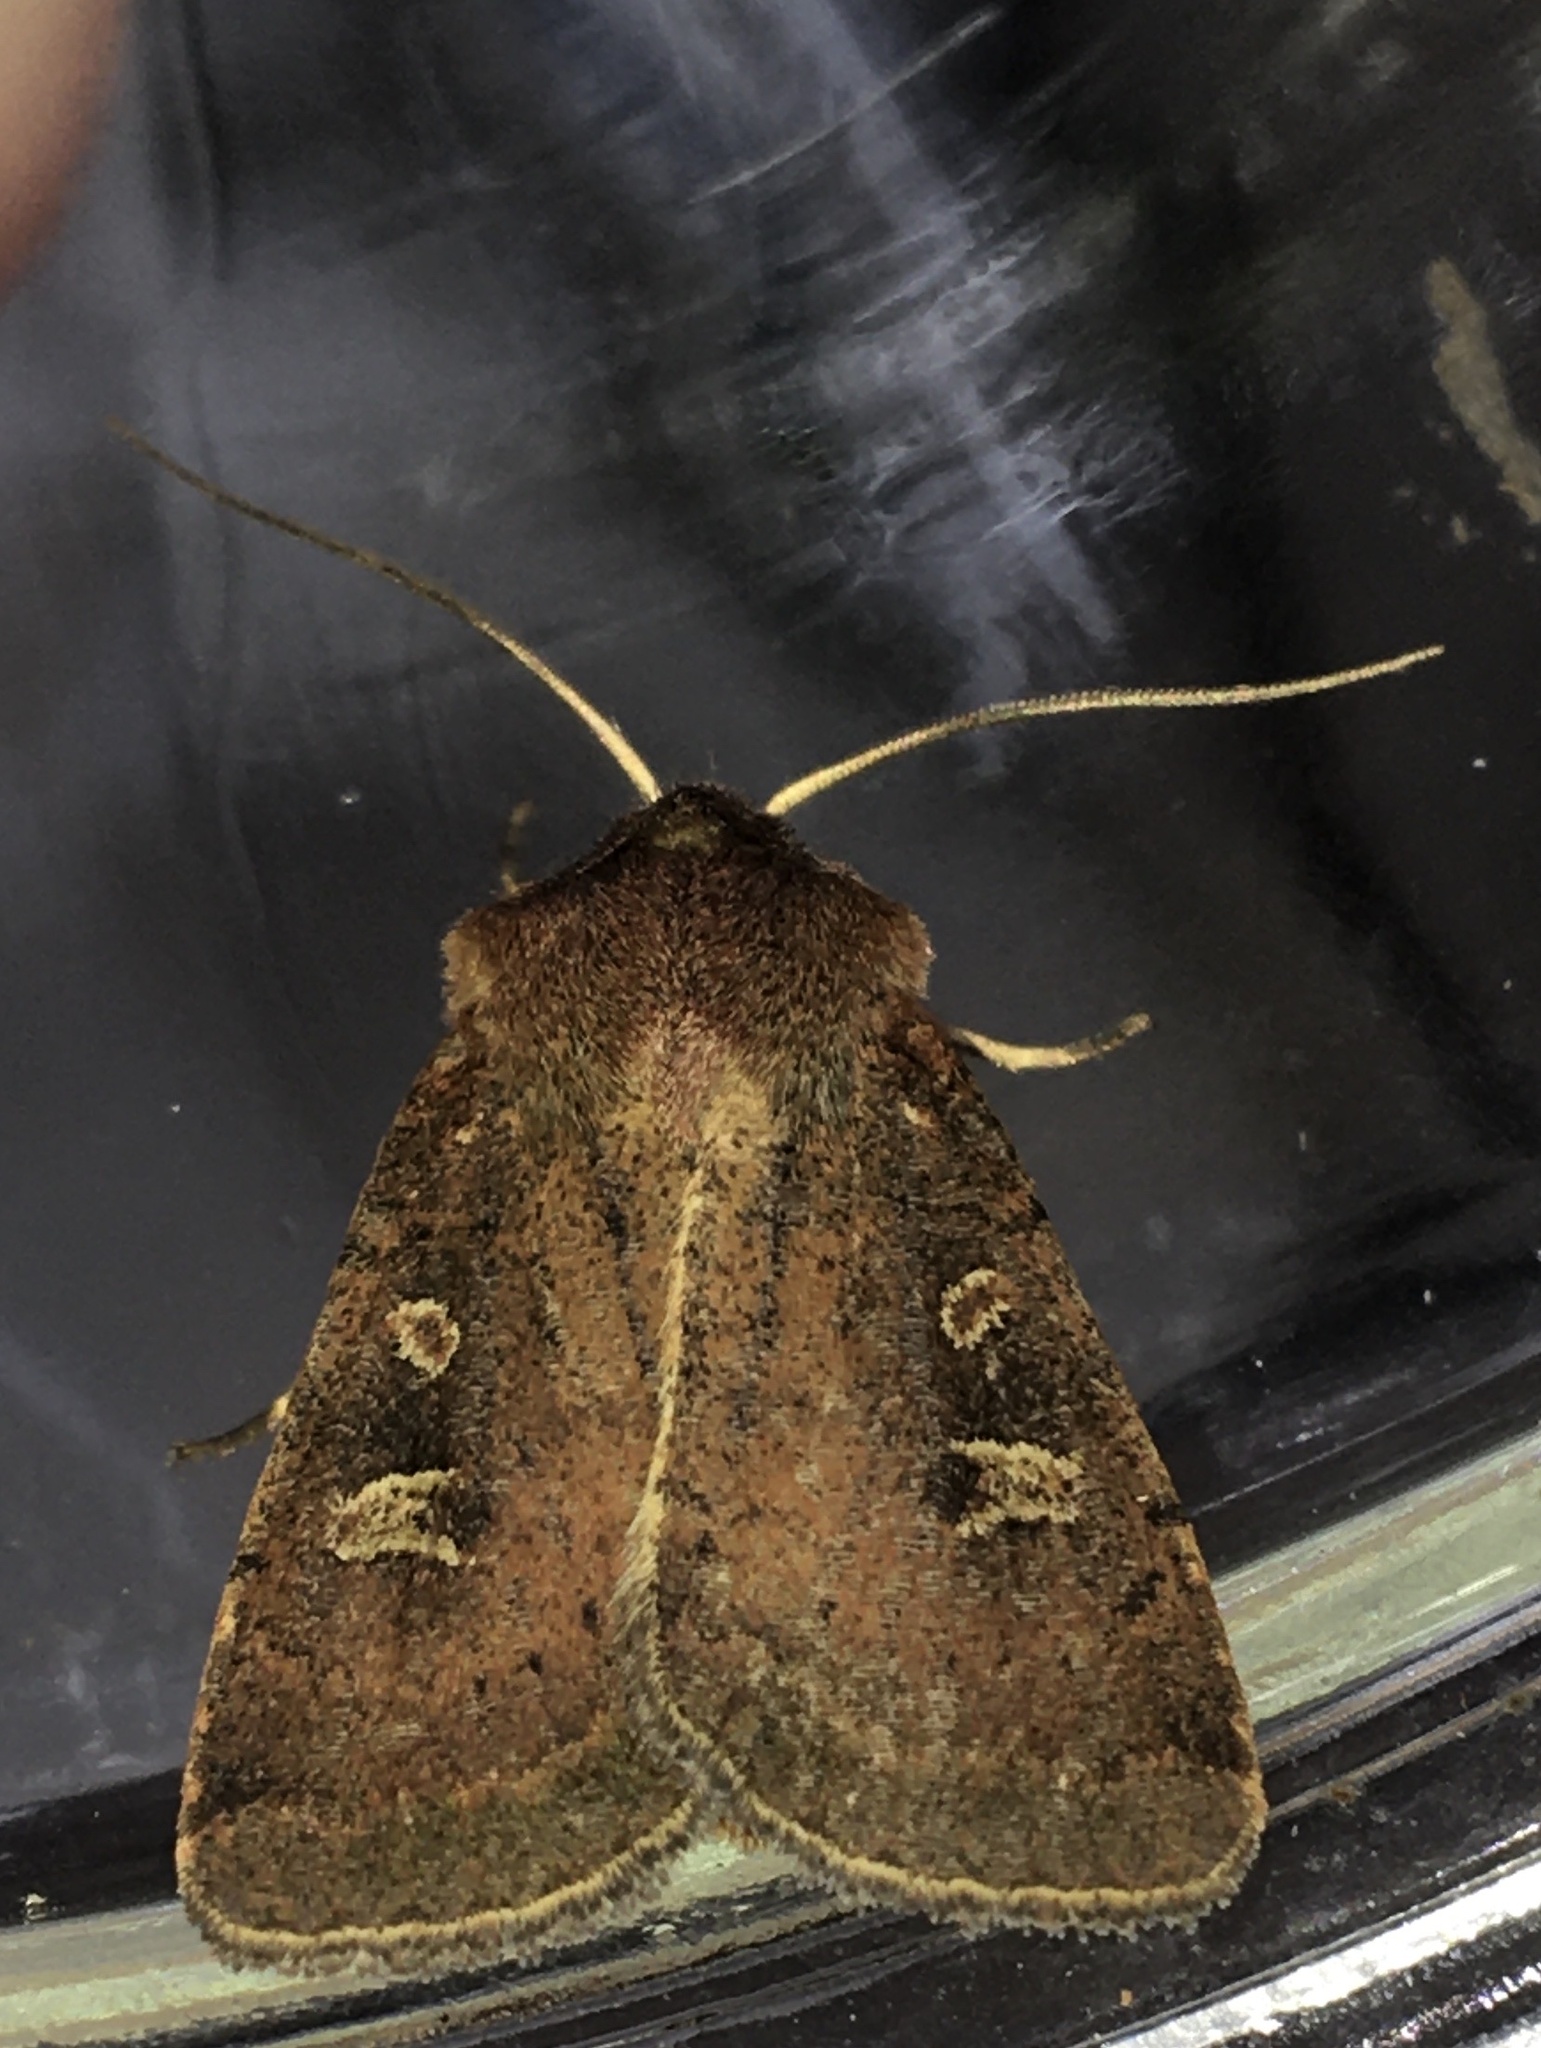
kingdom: Animalia
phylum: Arthropoda
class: Insecta
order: Lepidoptera
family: Noctuidae
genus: Xestia
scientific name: Xestia xanthographa
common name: Square-spot rustic
